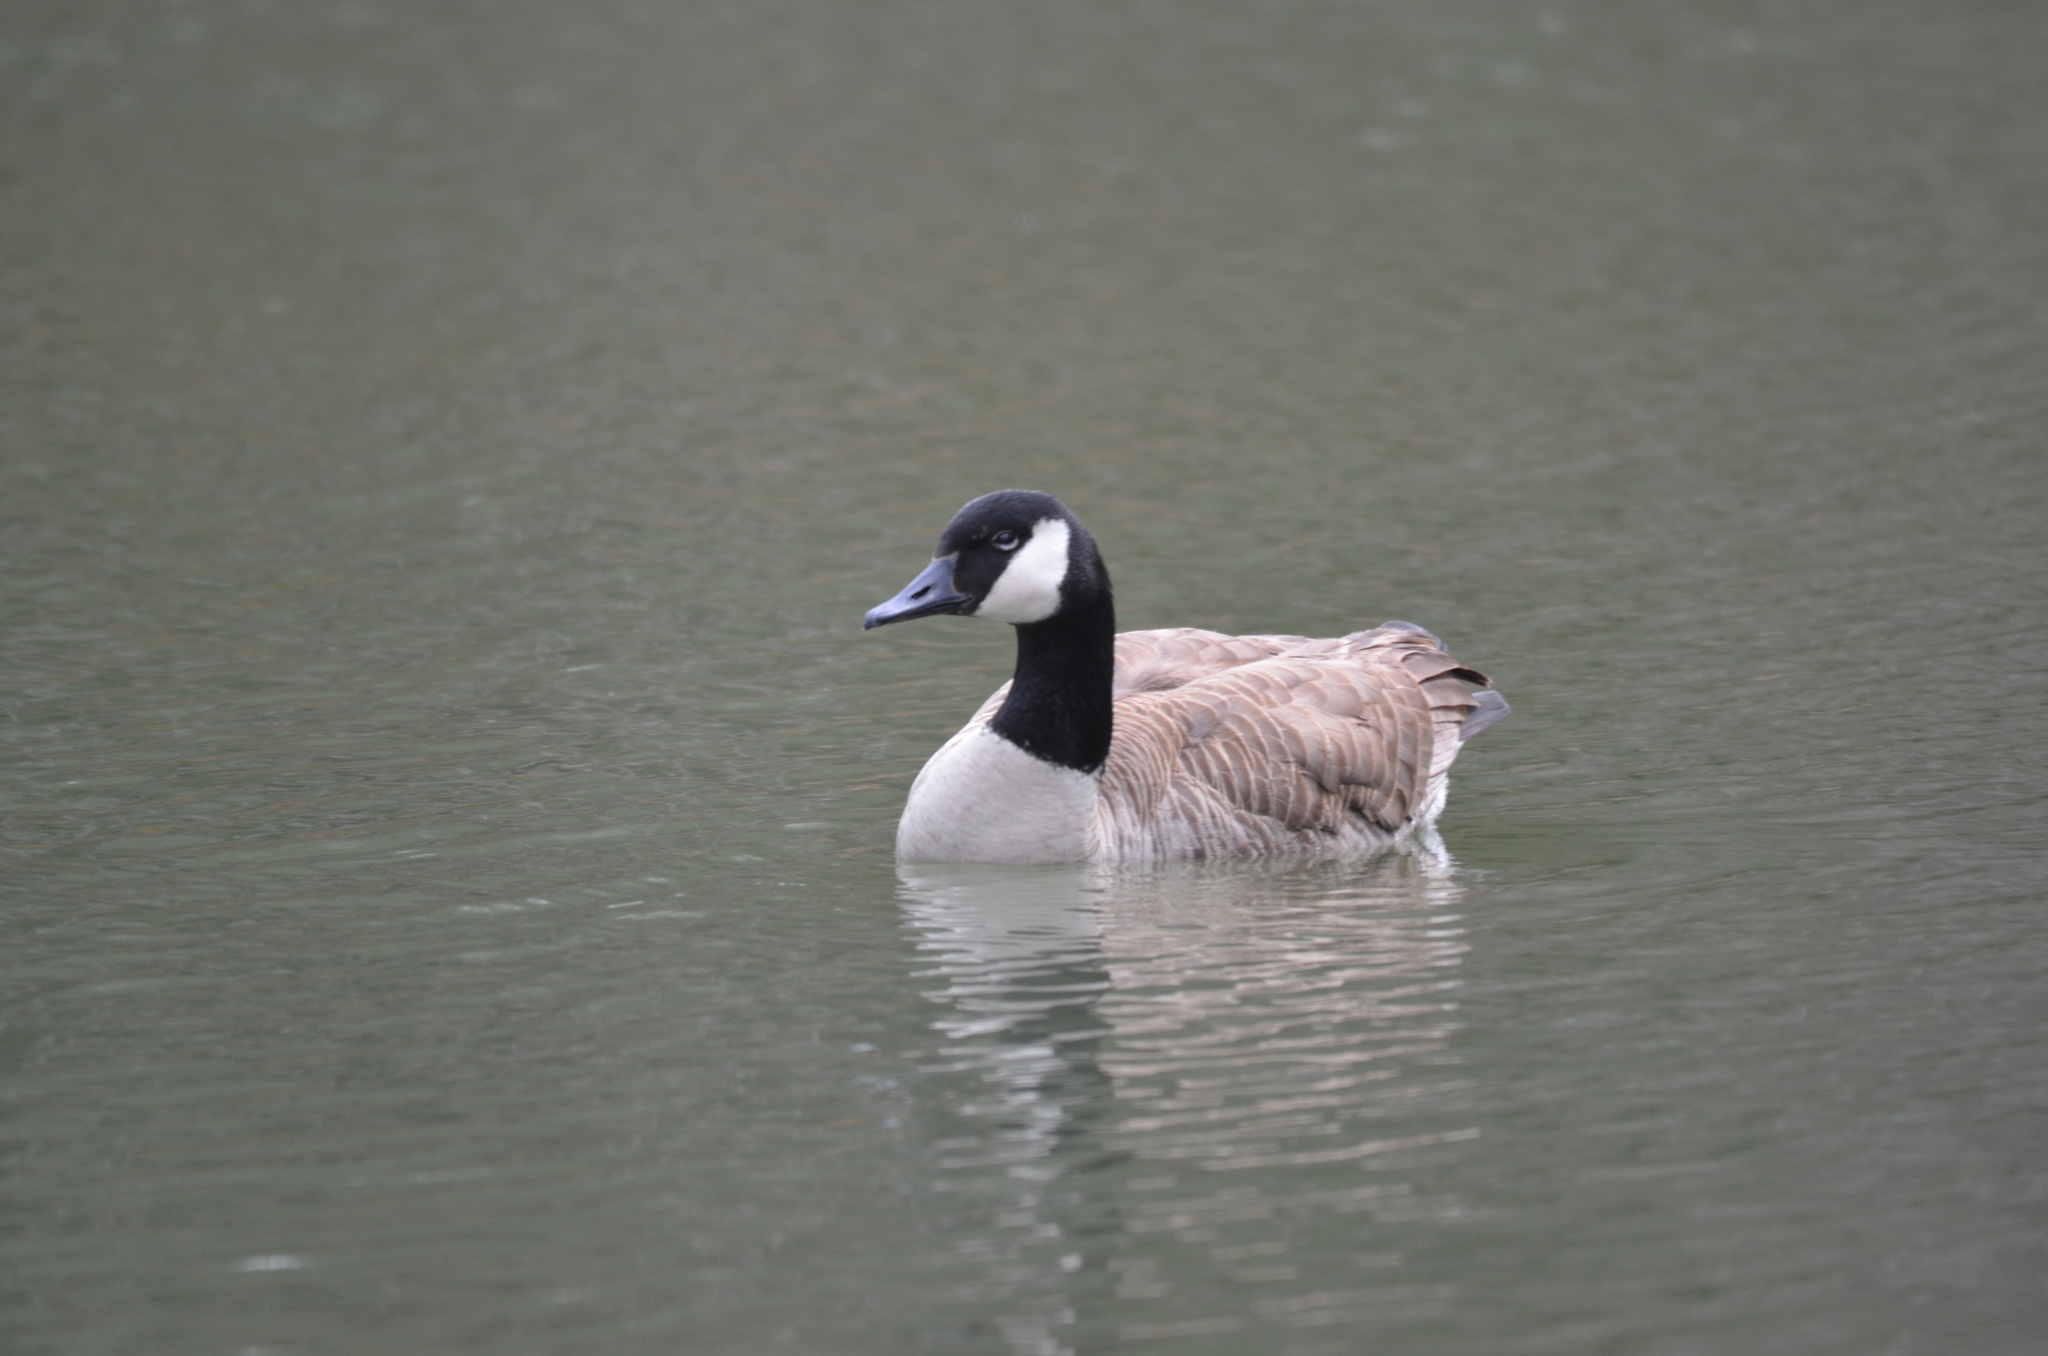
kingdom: Animalia
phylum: Chordata
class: Aves
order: Anseriformes
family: Anatidae
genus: Branta
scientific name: Branta canadensis
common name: Canada goose
